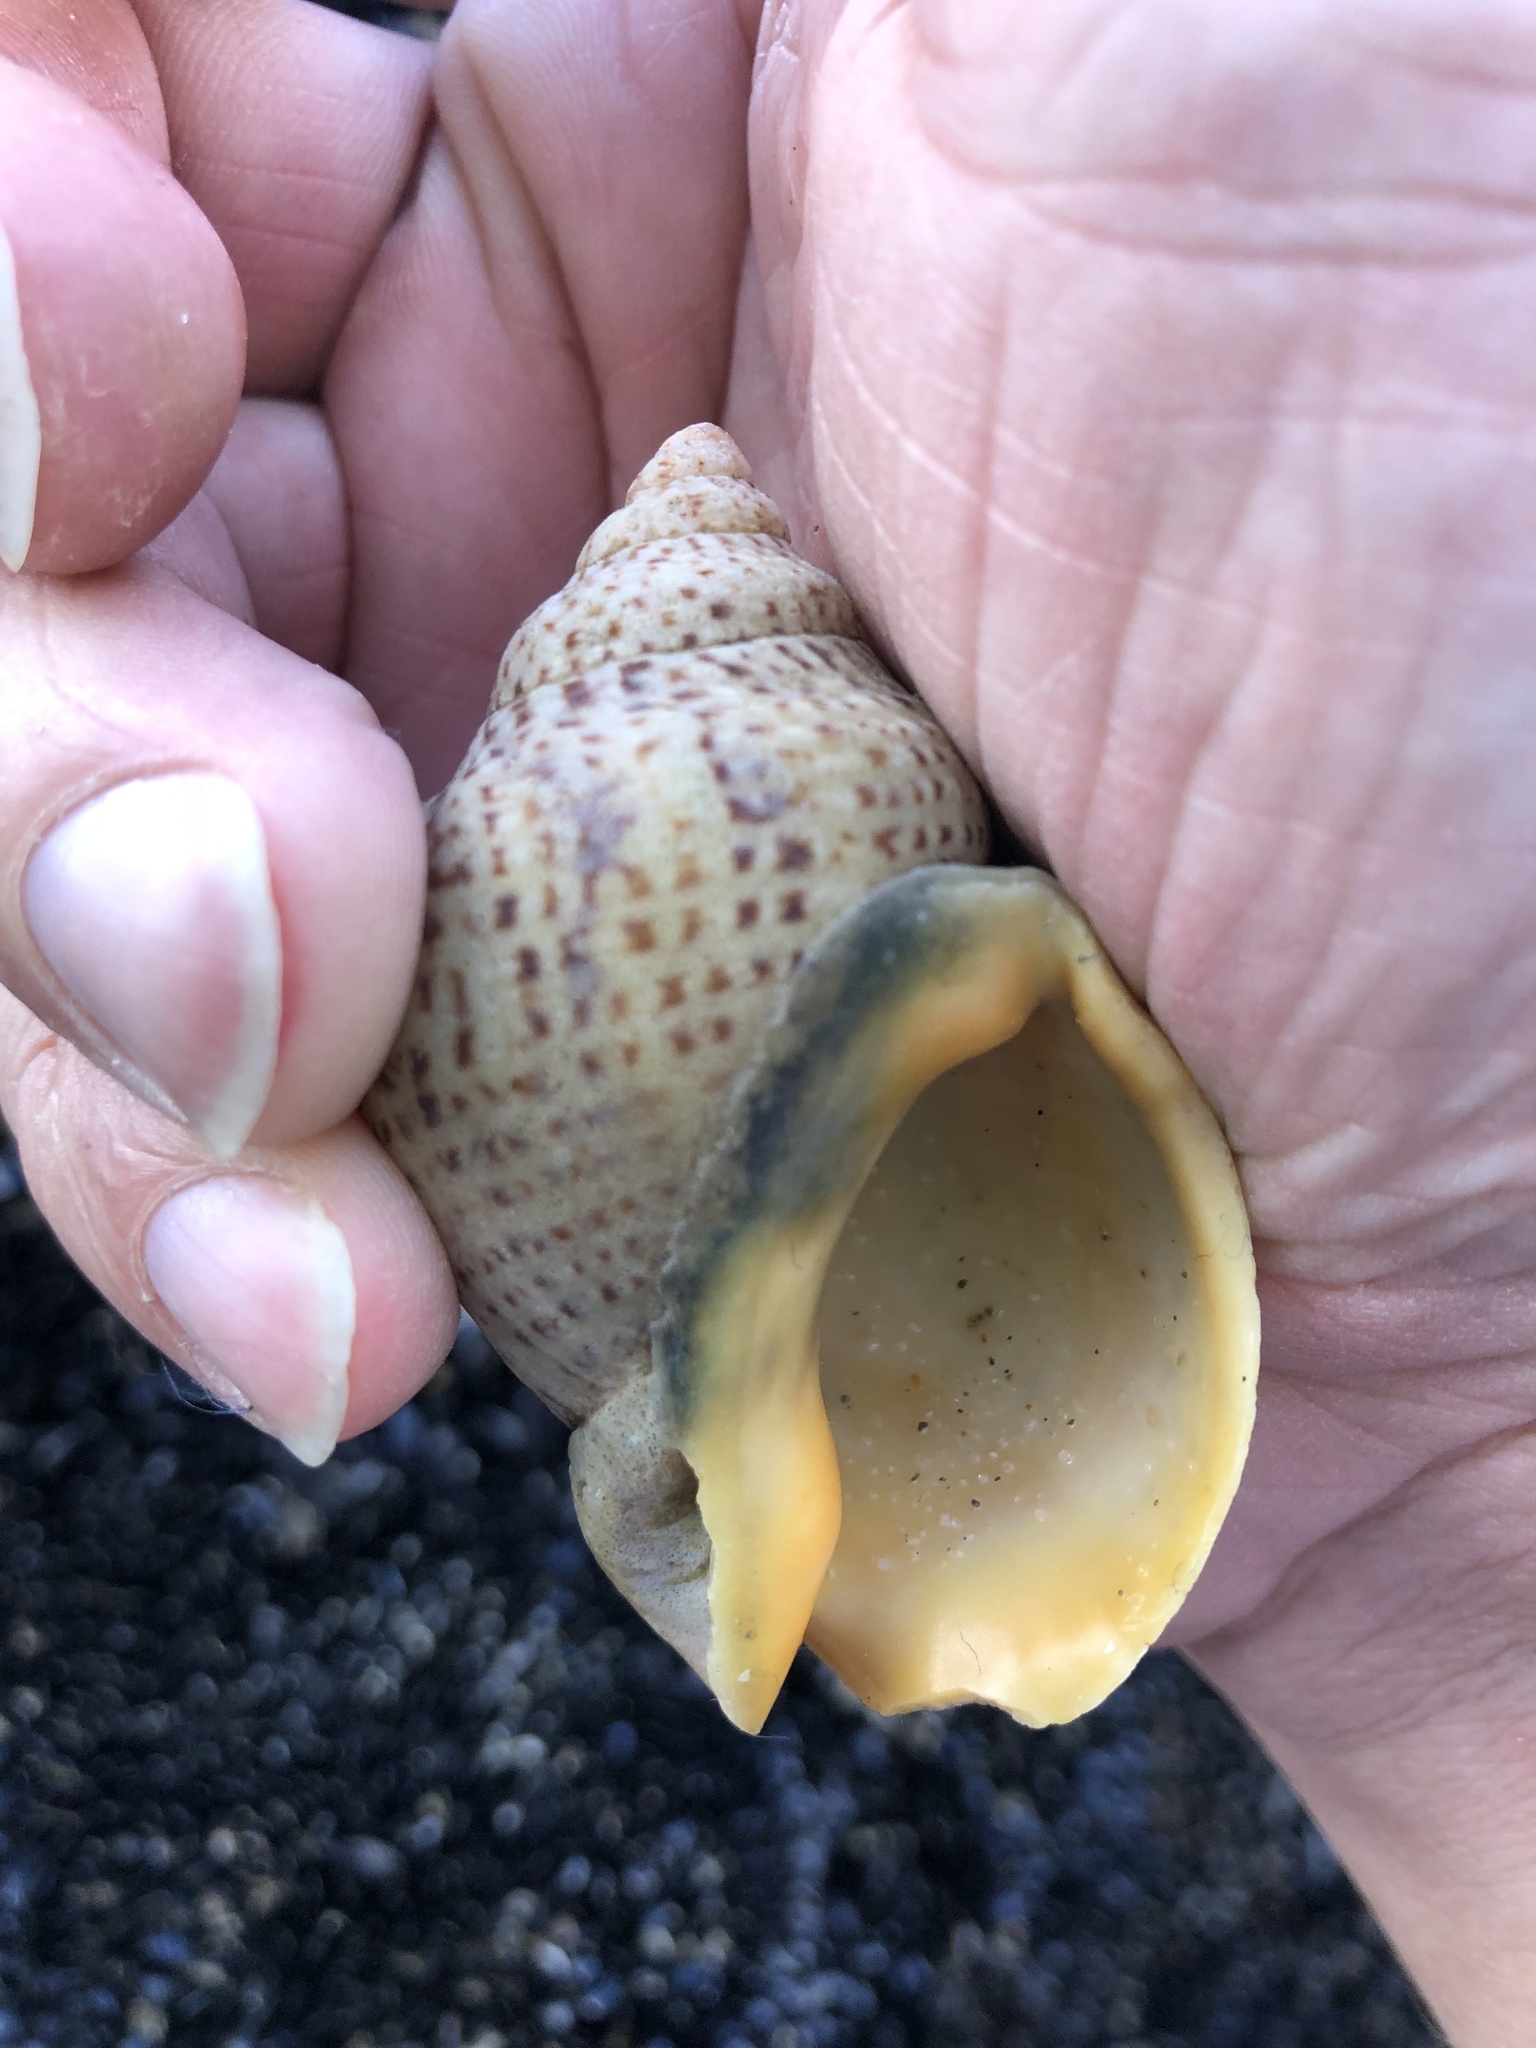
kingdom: Animalia
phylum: Mollusca
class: Gastropoda
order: Neogastropoda
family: Cominellidae
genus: Cominella
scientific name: Cominella adspersa
